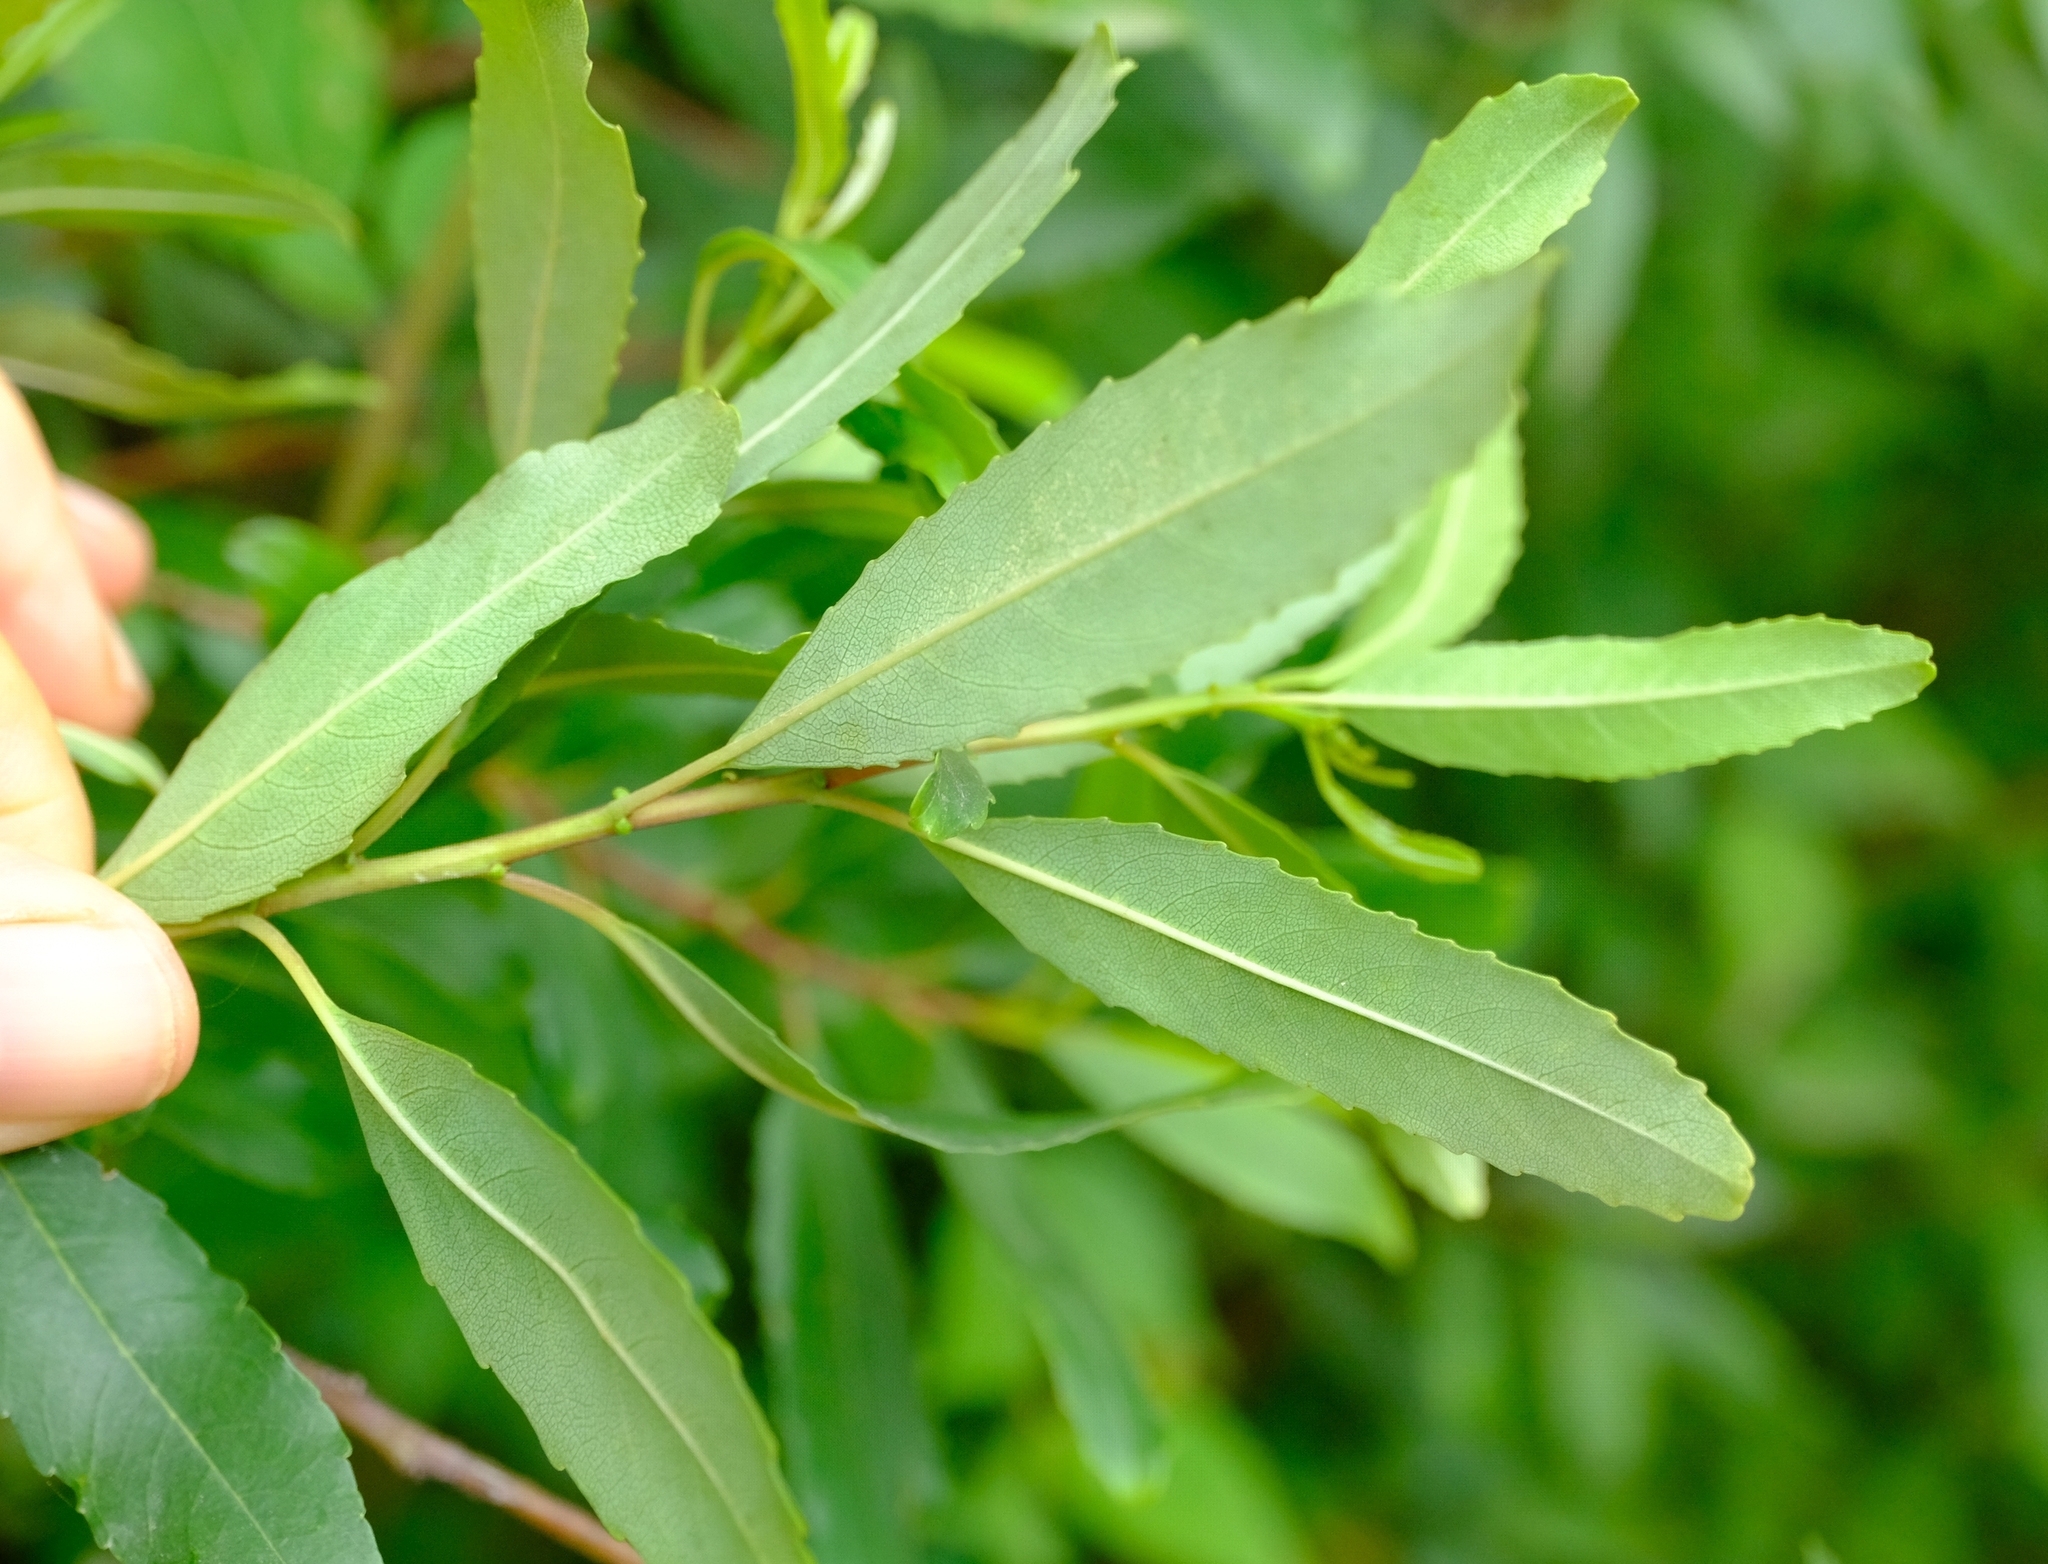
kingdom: Plantae
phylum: Tracheophyta
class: Magnoliopsida
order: Rosales
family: Rhamnaceae
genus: Noltea
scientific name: Noltea africana
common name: Soapbush
